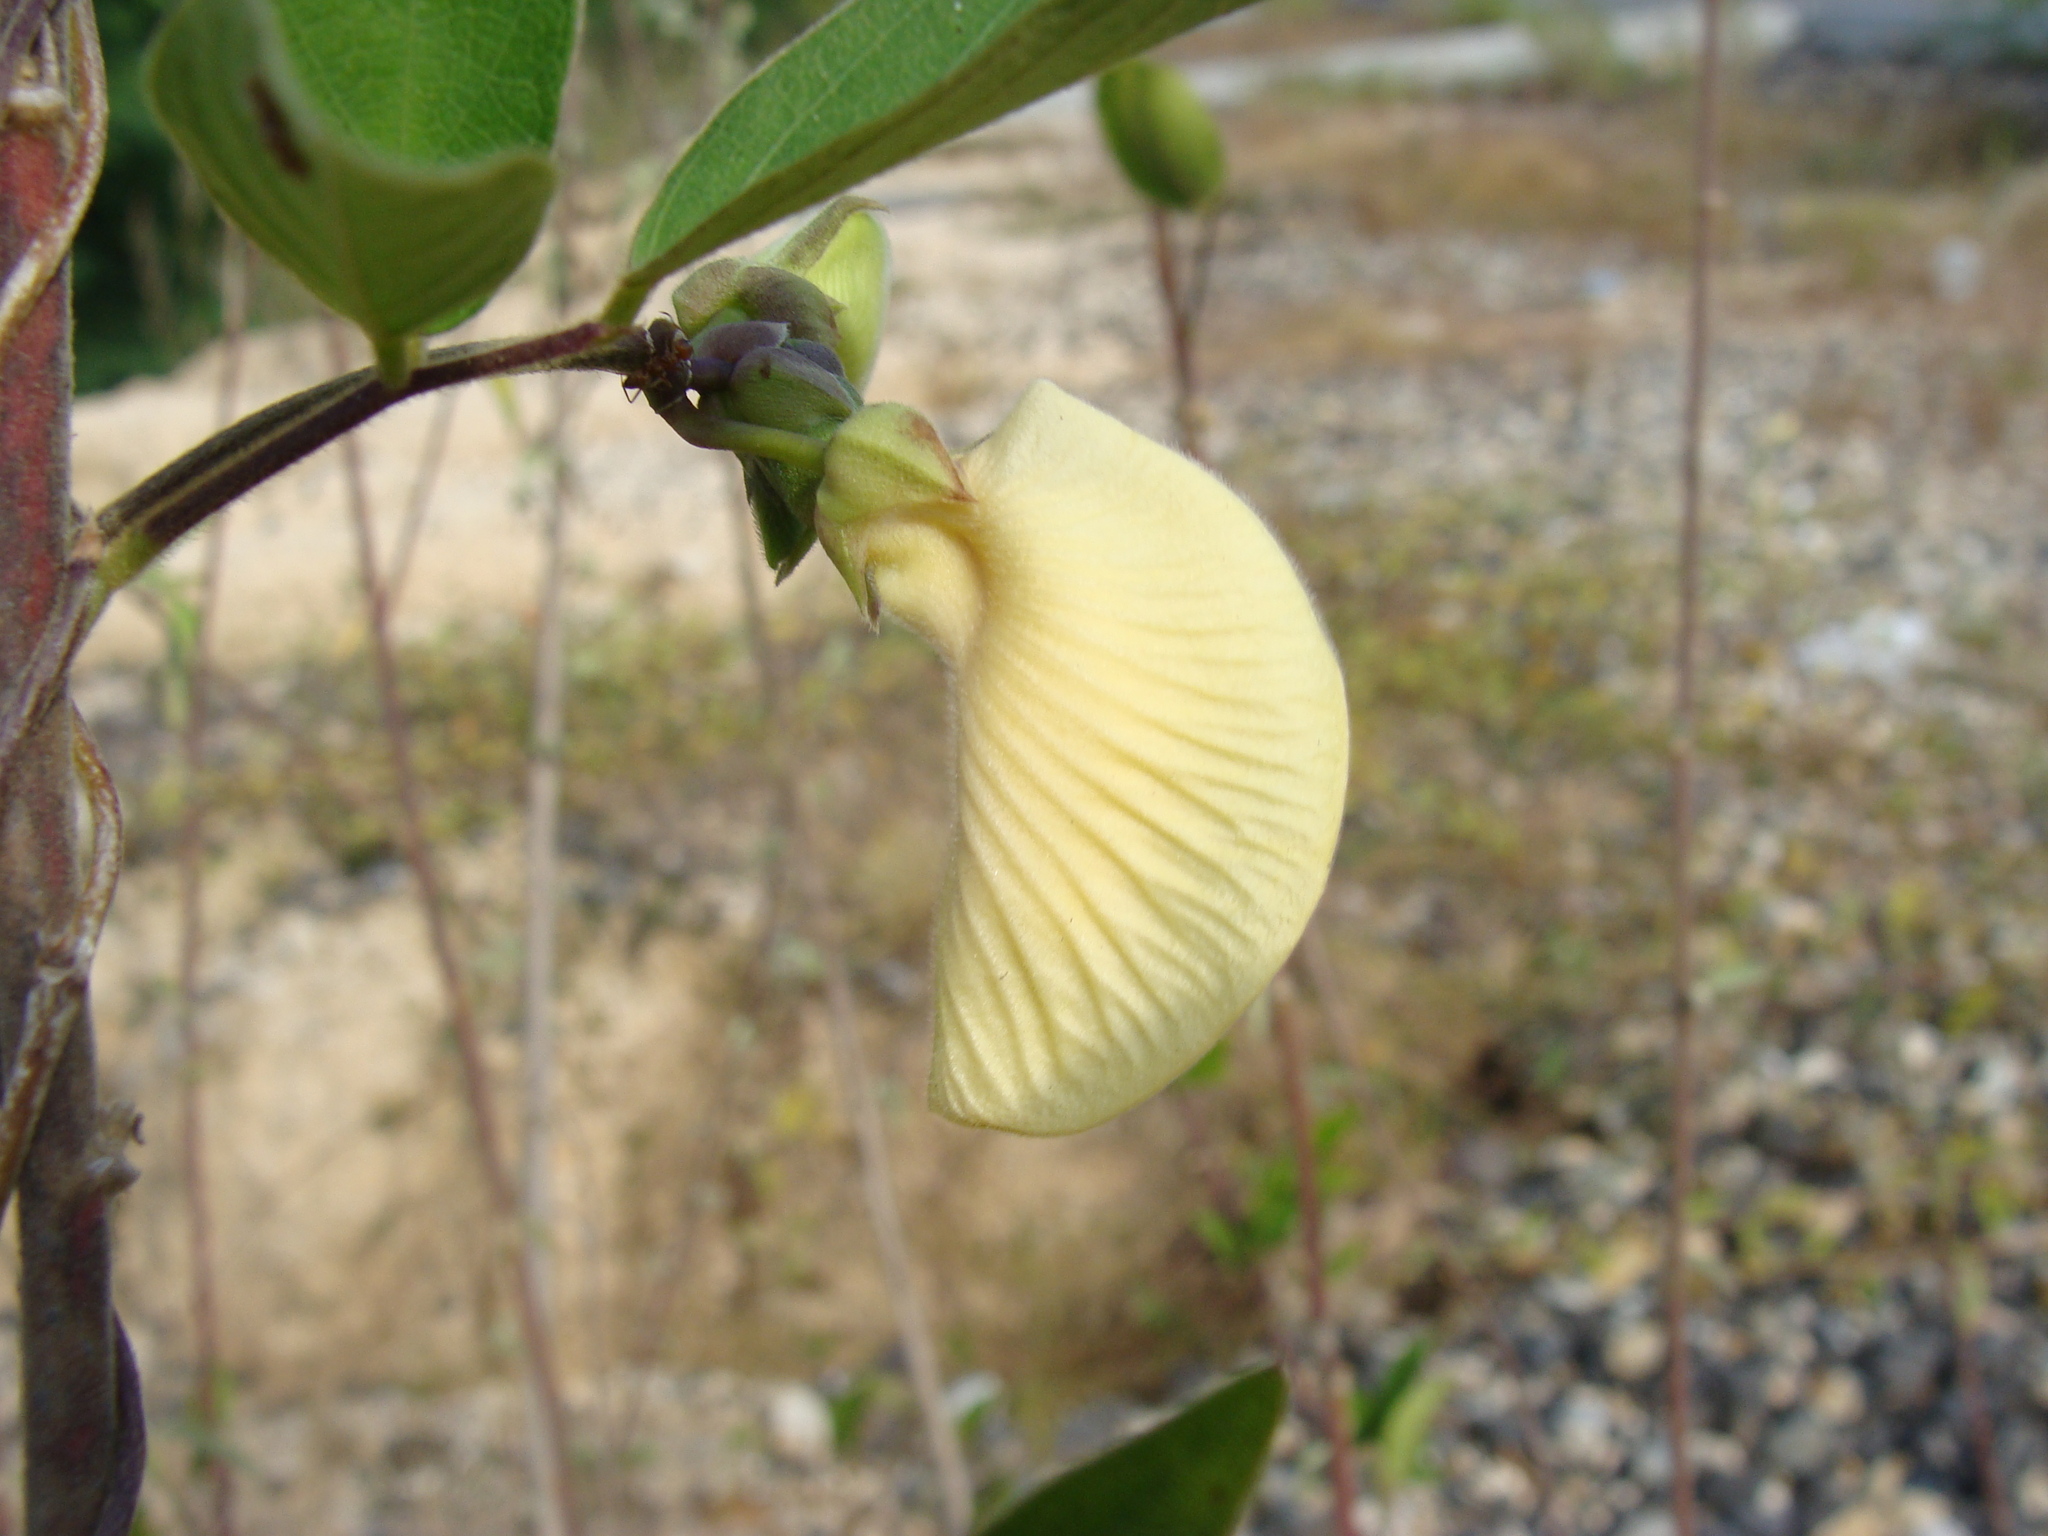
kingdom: Plantae
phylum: Tracheophyta
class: Magnoliopsida
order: Fabales
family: Fabaceae
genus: Centrosema
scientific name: Centrosema pubescens
